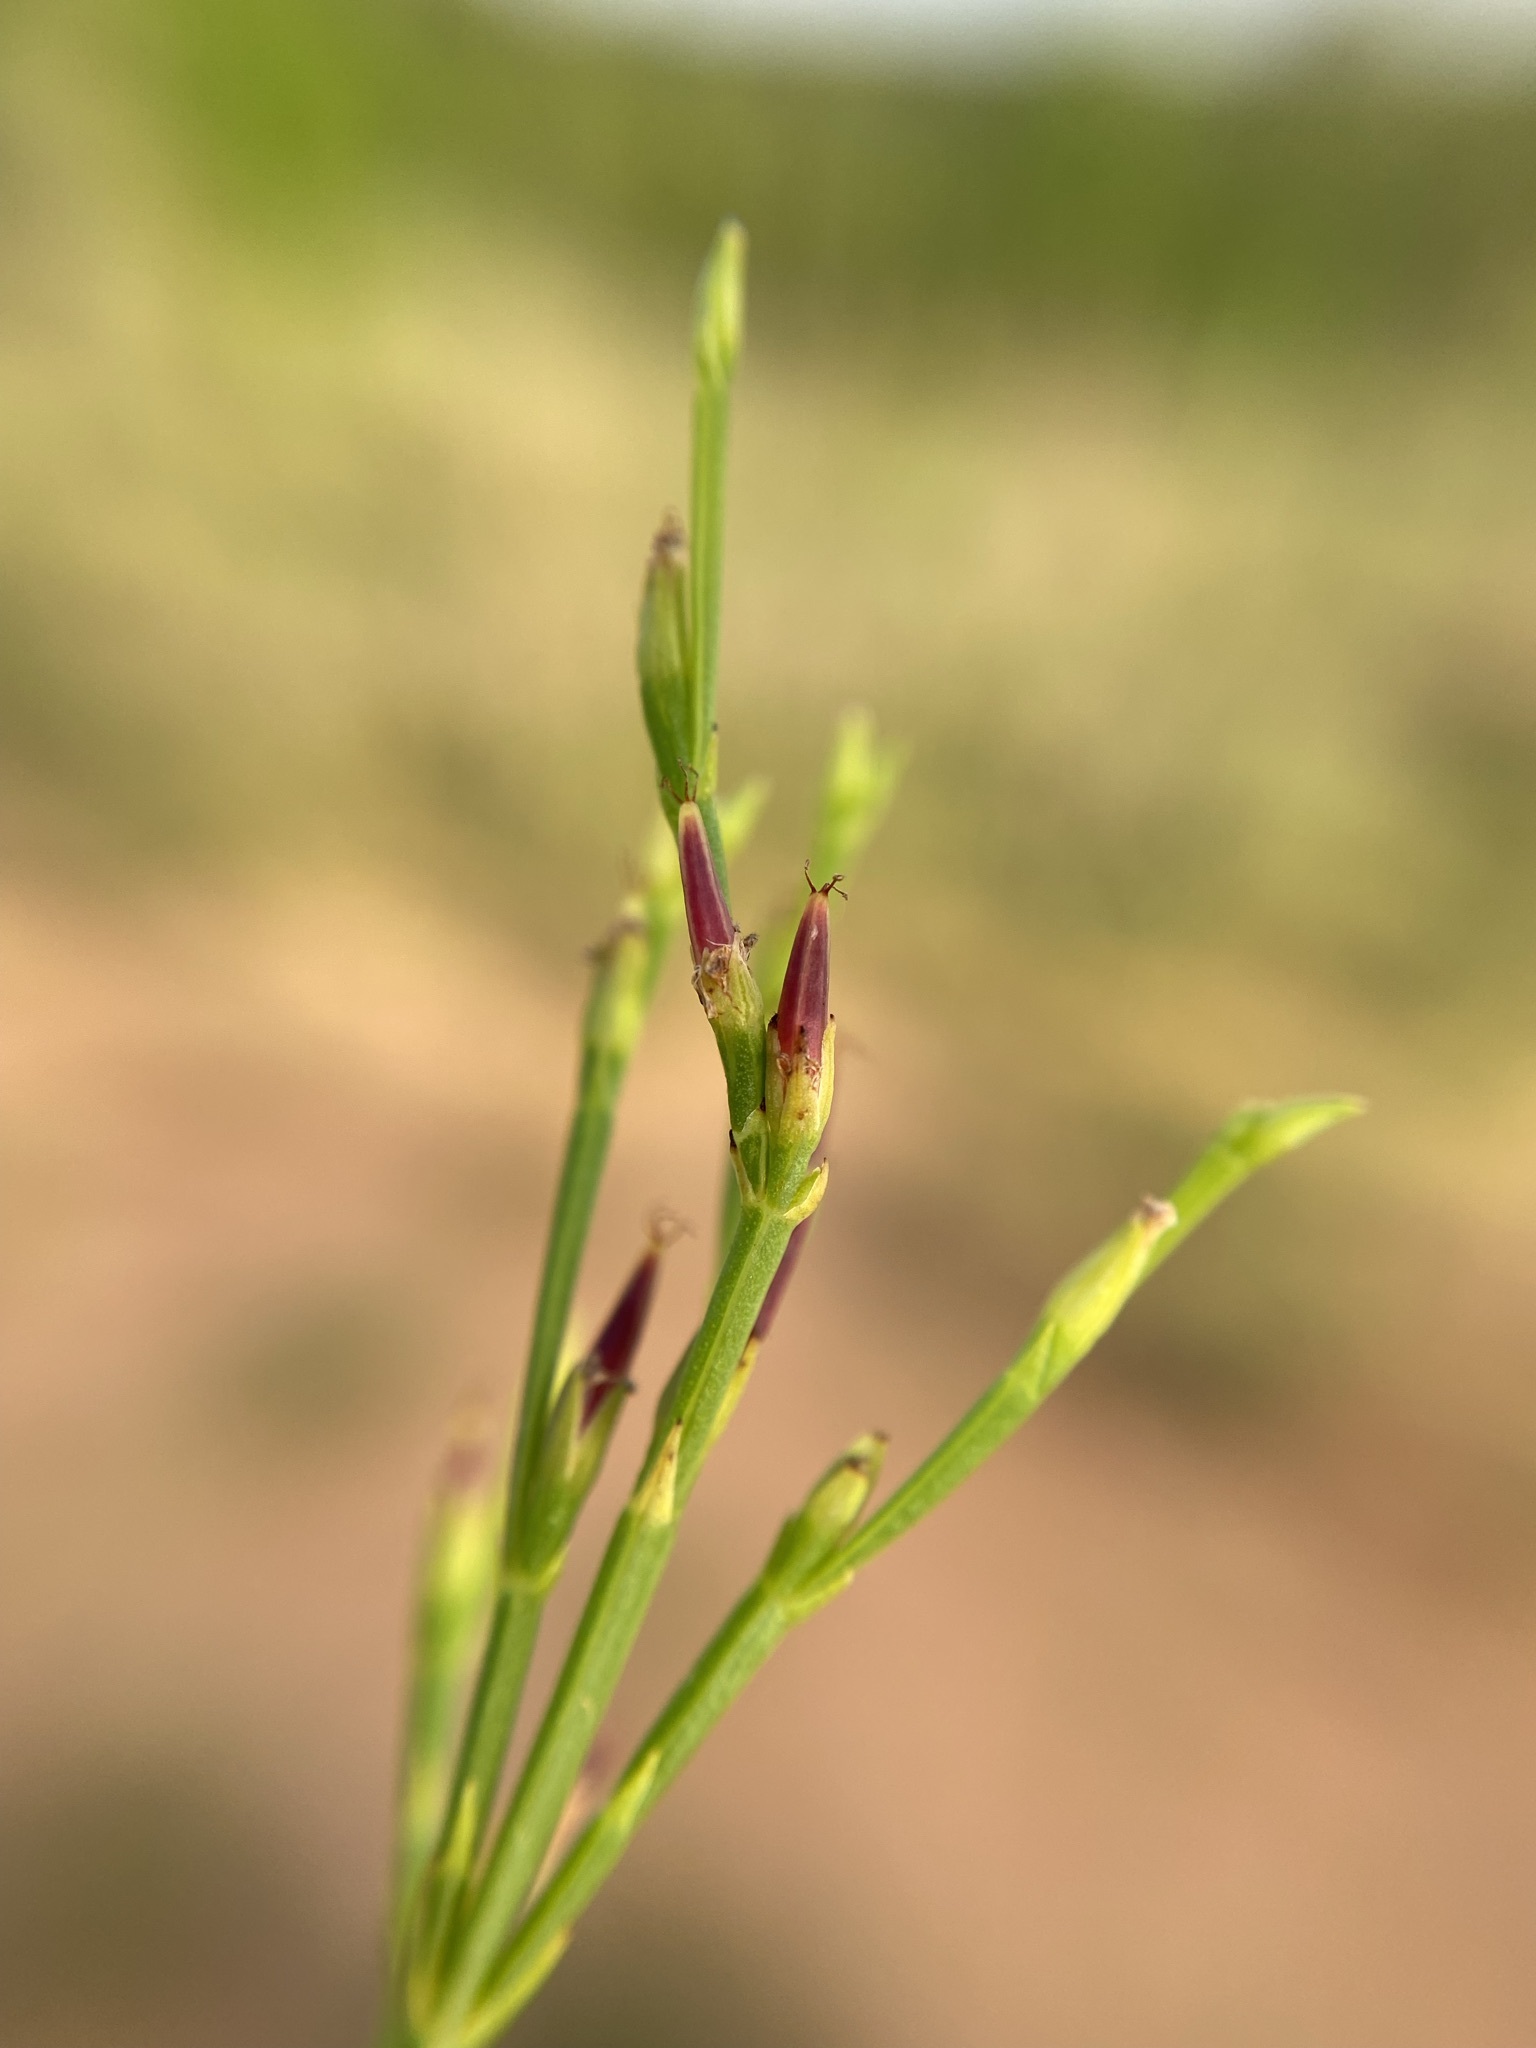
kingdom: Plantae
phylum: Tracheophyta
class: Magnoliopsida
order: Malpighiales
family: Hypericaceae
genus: Hypericum
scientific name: Hypericum gentianoides
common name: Gentian-leaved st. john's-wort
